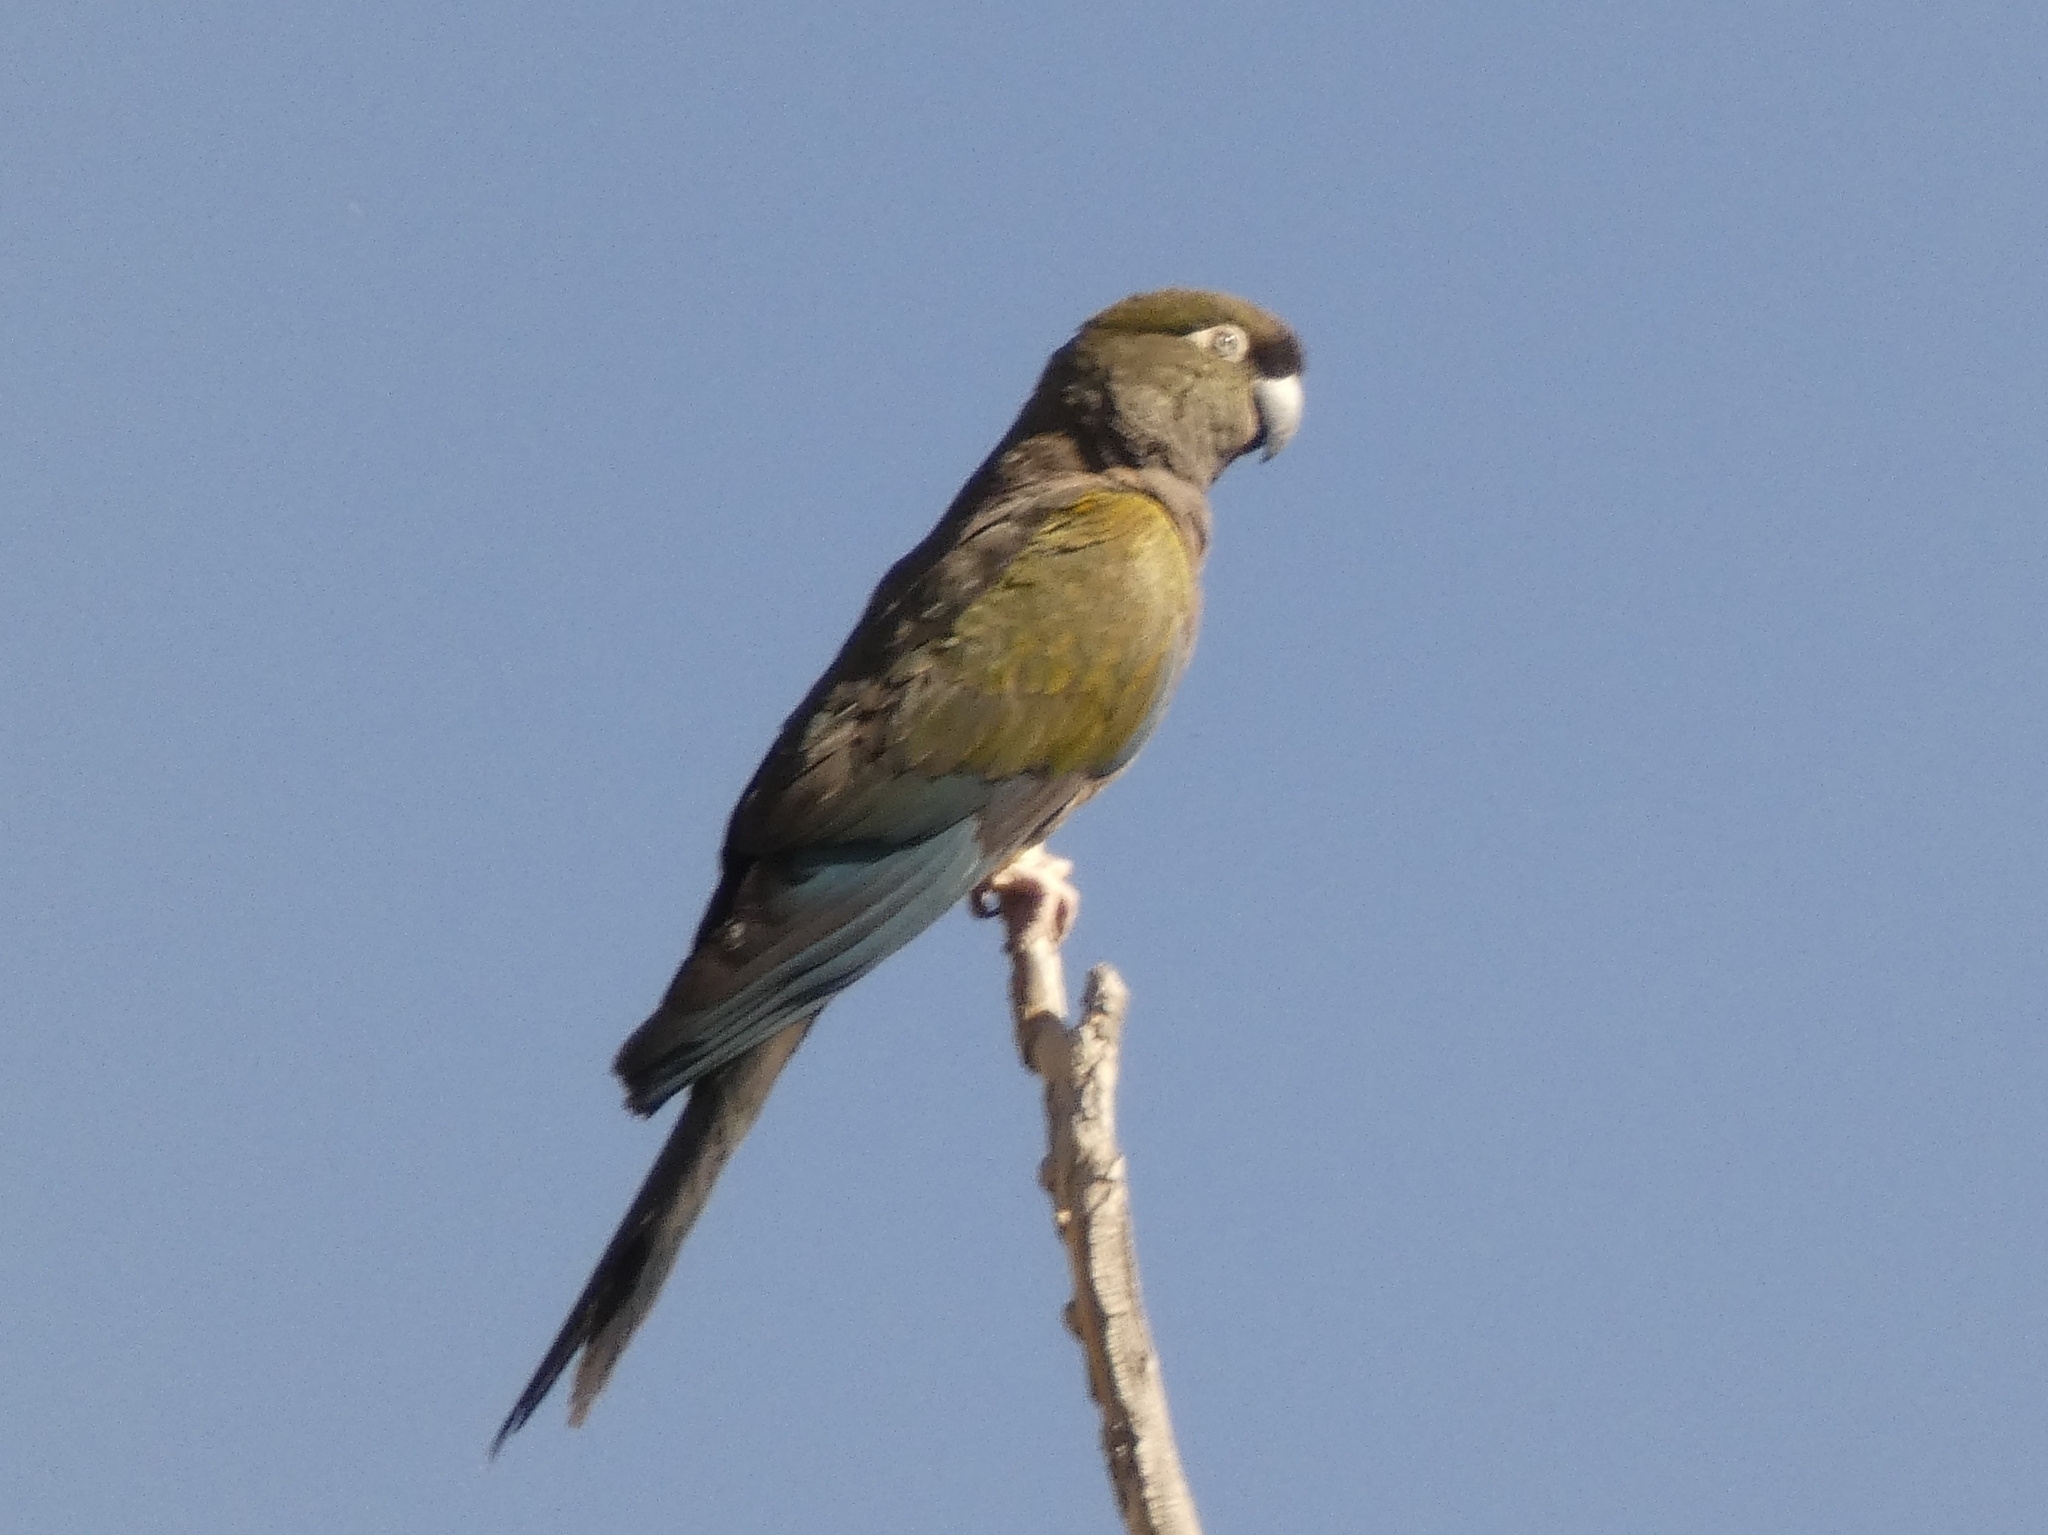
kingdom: Animalia
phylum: Chordata
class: Aves
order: Psittaciformes
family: Psittacidae
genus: Cyanoliseus
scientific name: Cyanoliseus patagonus
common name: Burrowing parrot
